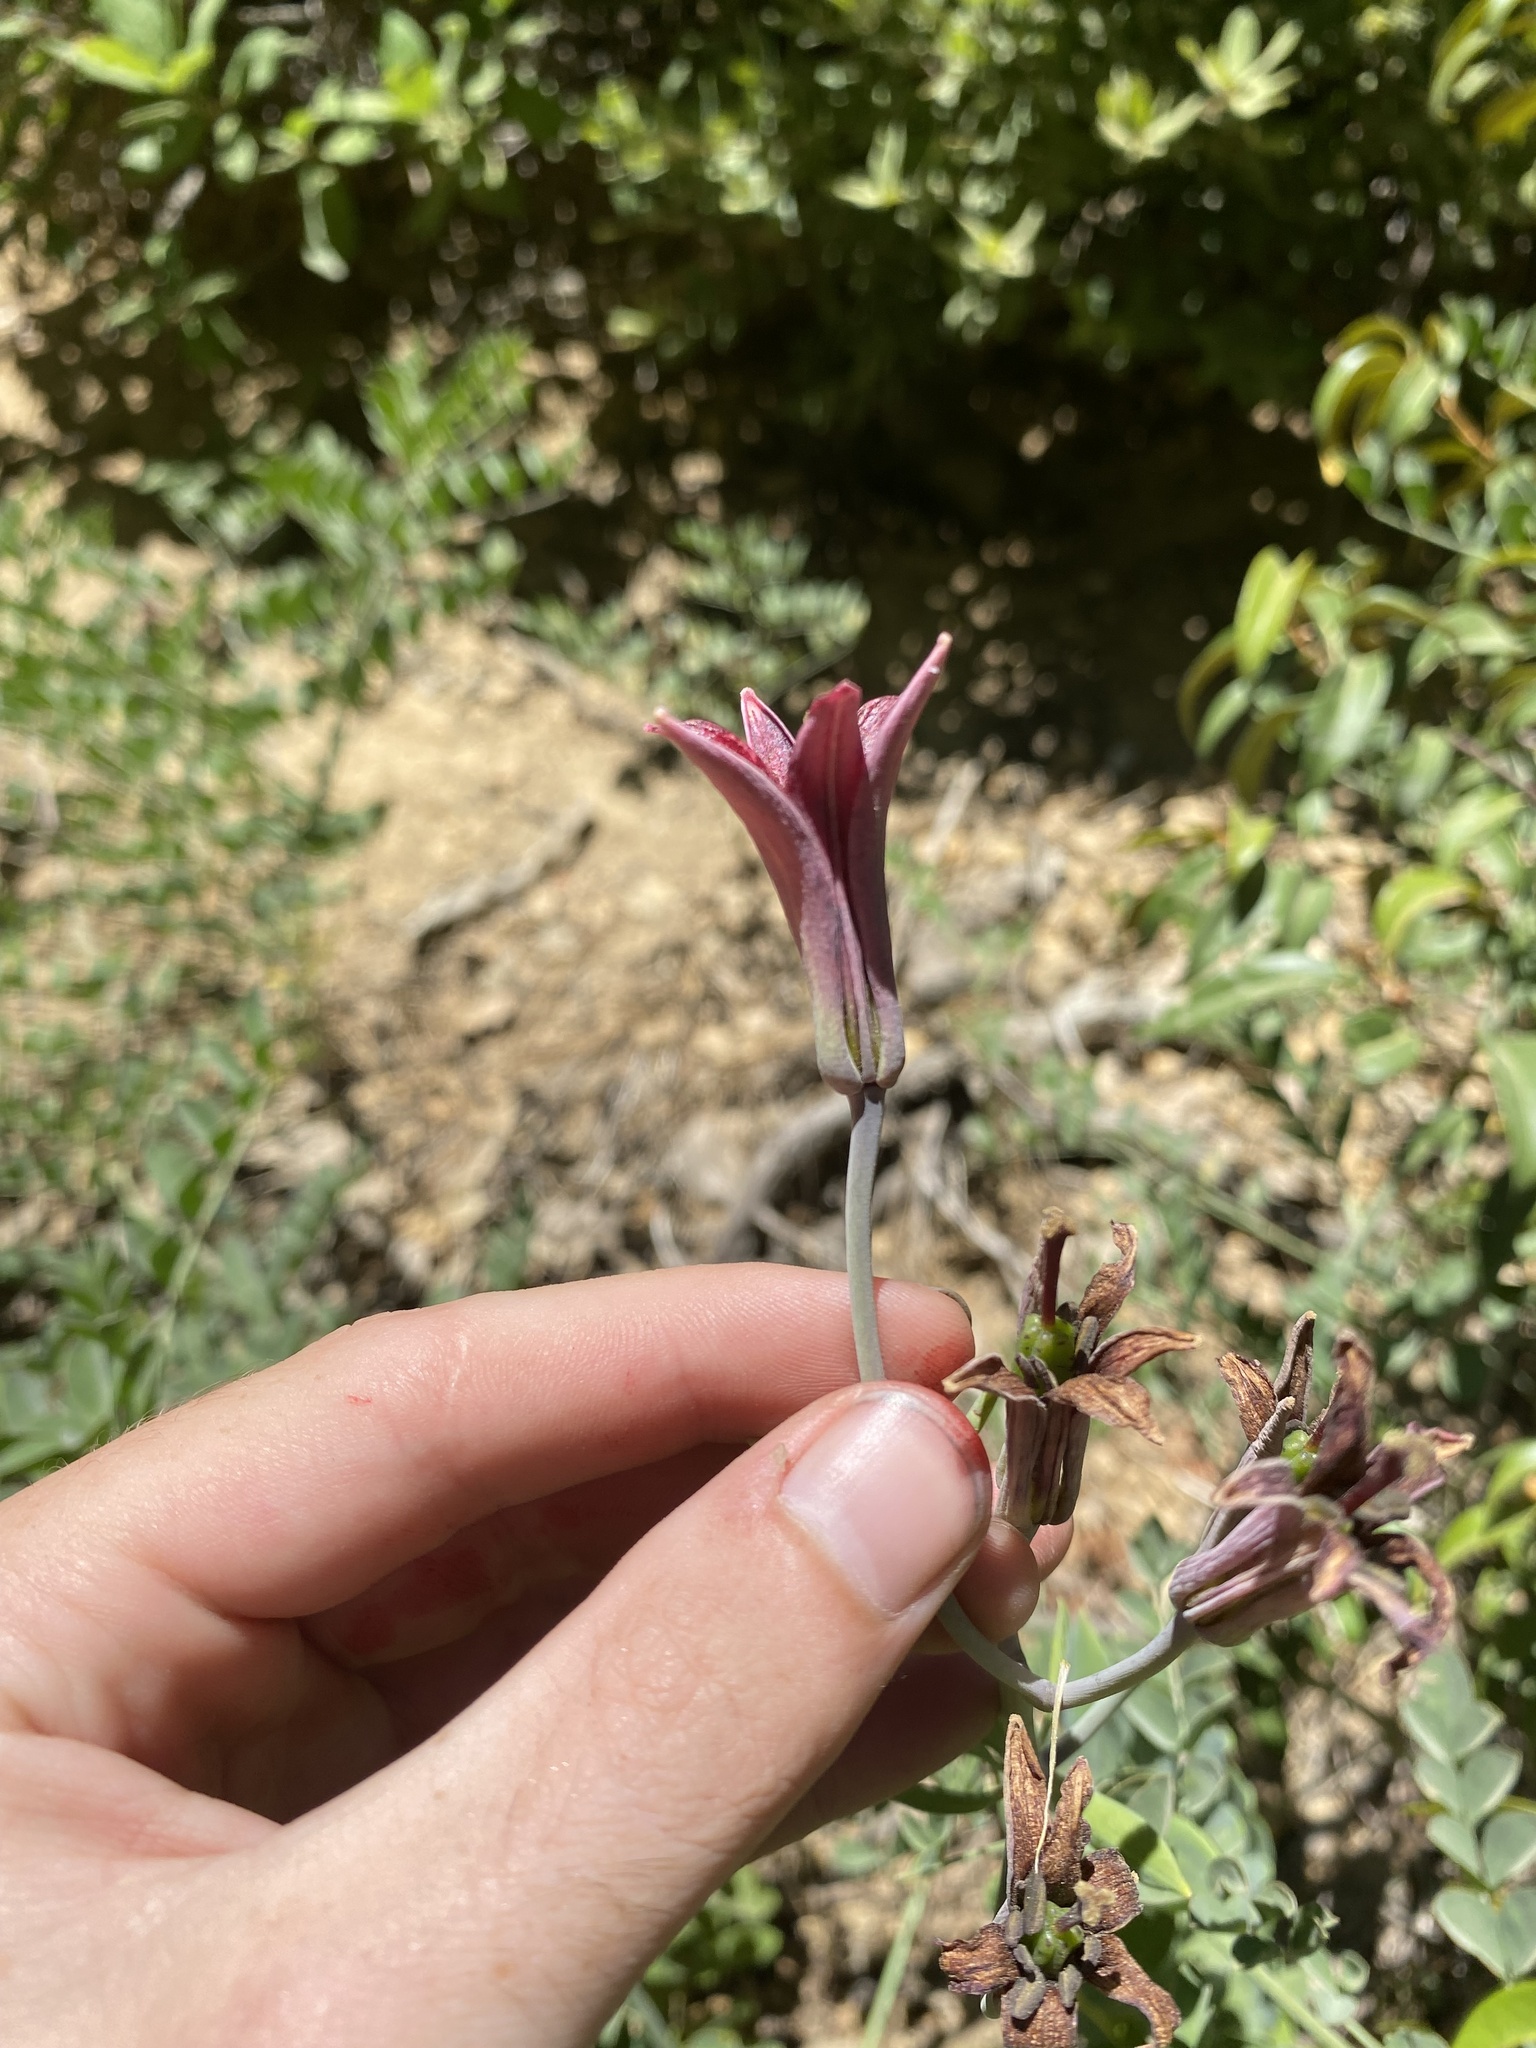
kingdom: Plantae
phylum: Tracheophyta
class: Liliopsida
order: Liliales
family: Liliaceae
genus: Lilium
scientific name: Lilium bolanderi
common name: Bolander's lily
